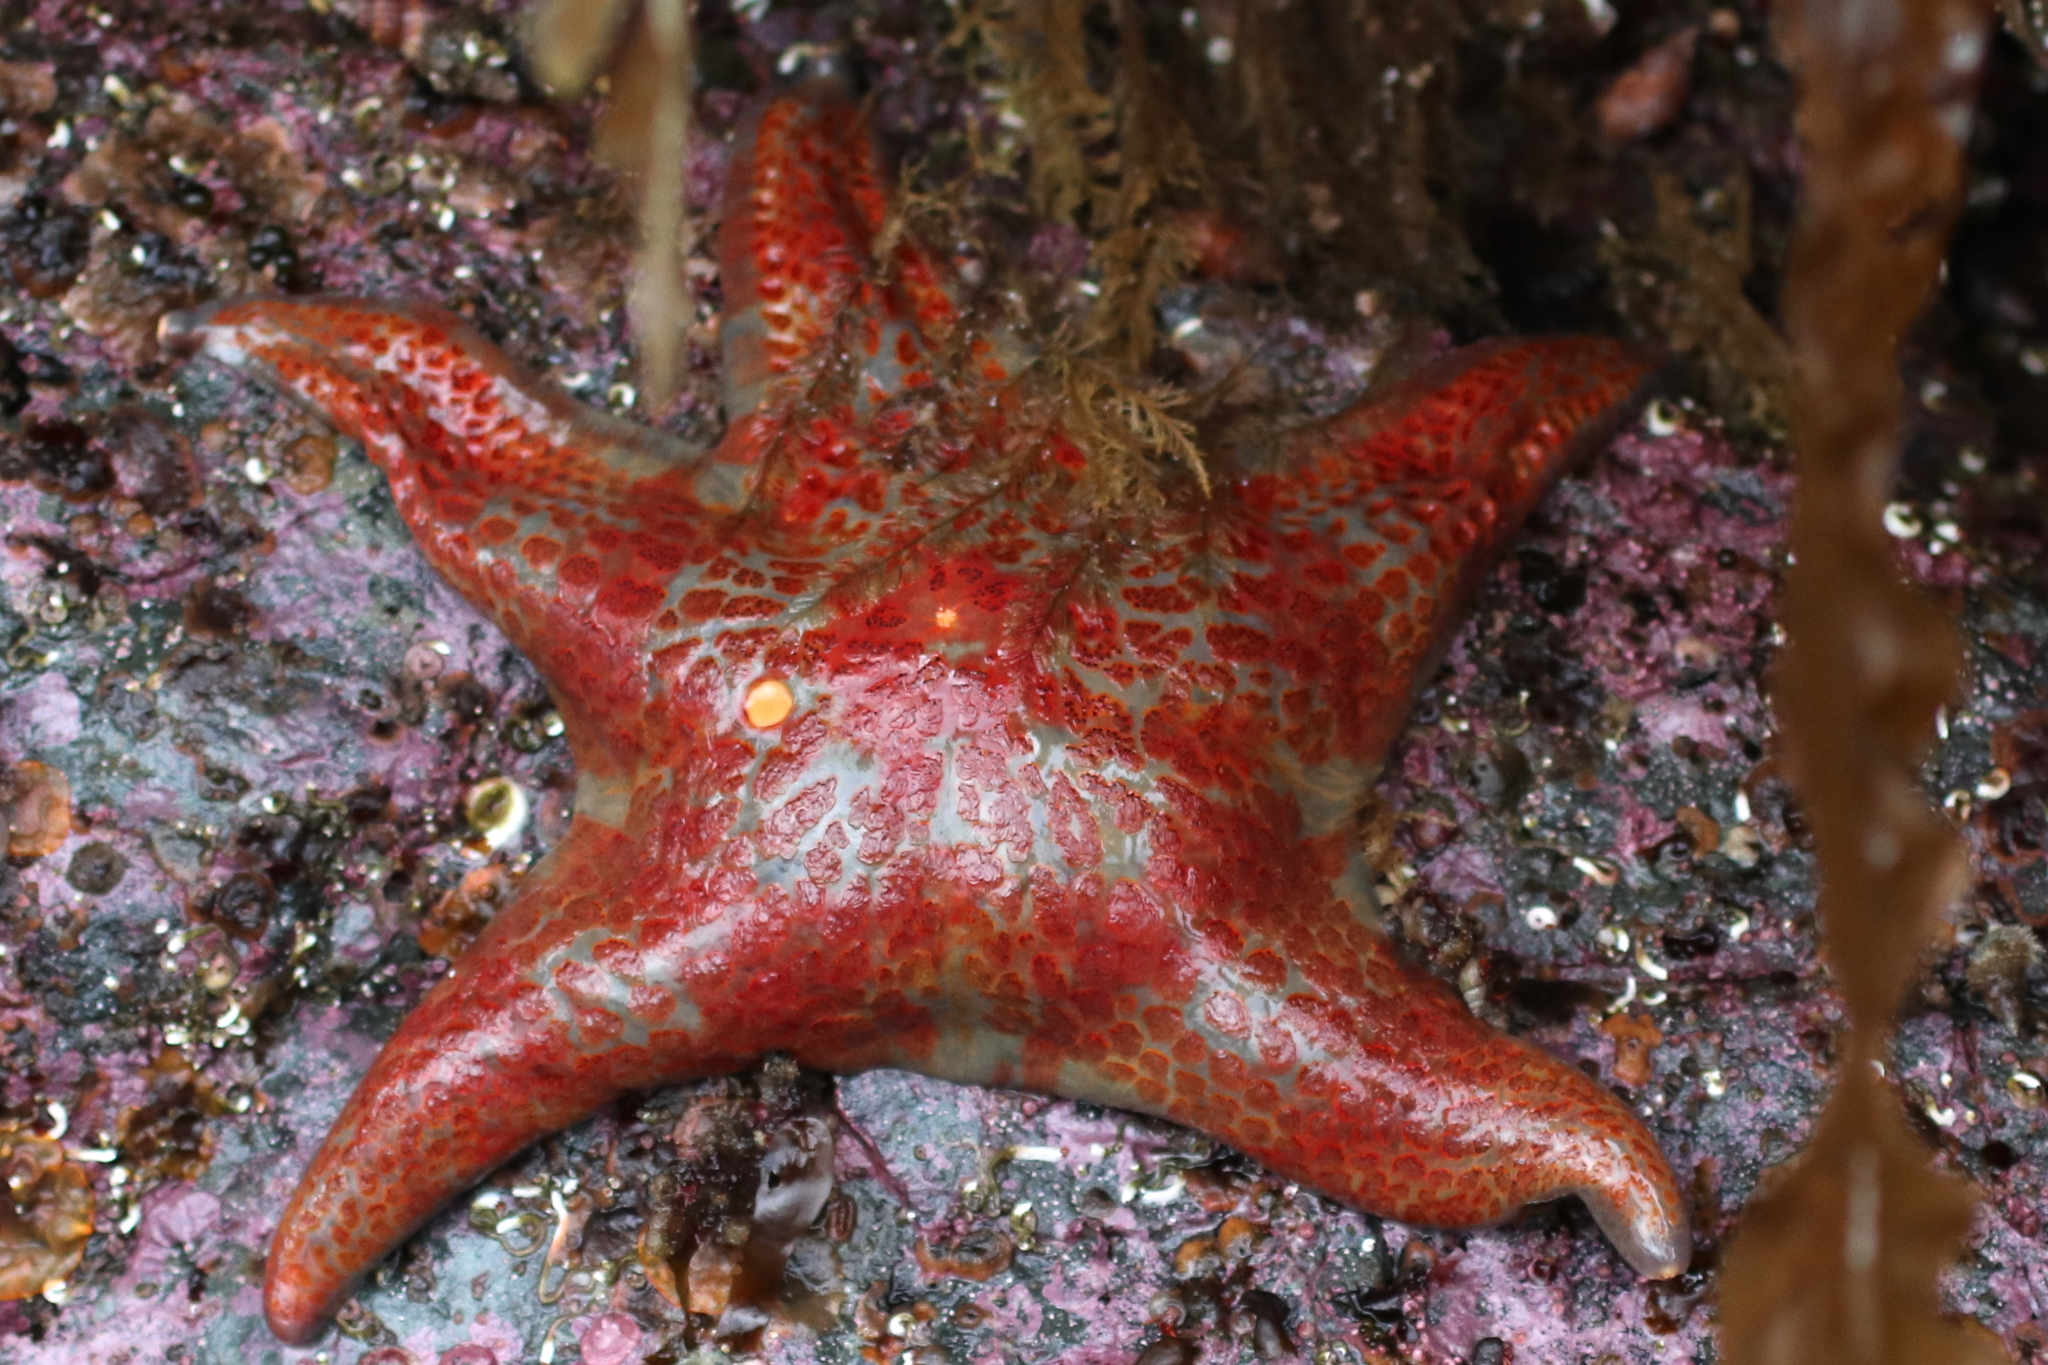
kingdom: Animalia
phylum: Echinodermata
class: Asteroidea
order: Valvatida
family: Asteropseidae
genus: Dermasterias
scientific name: Dermasterias imbricata
